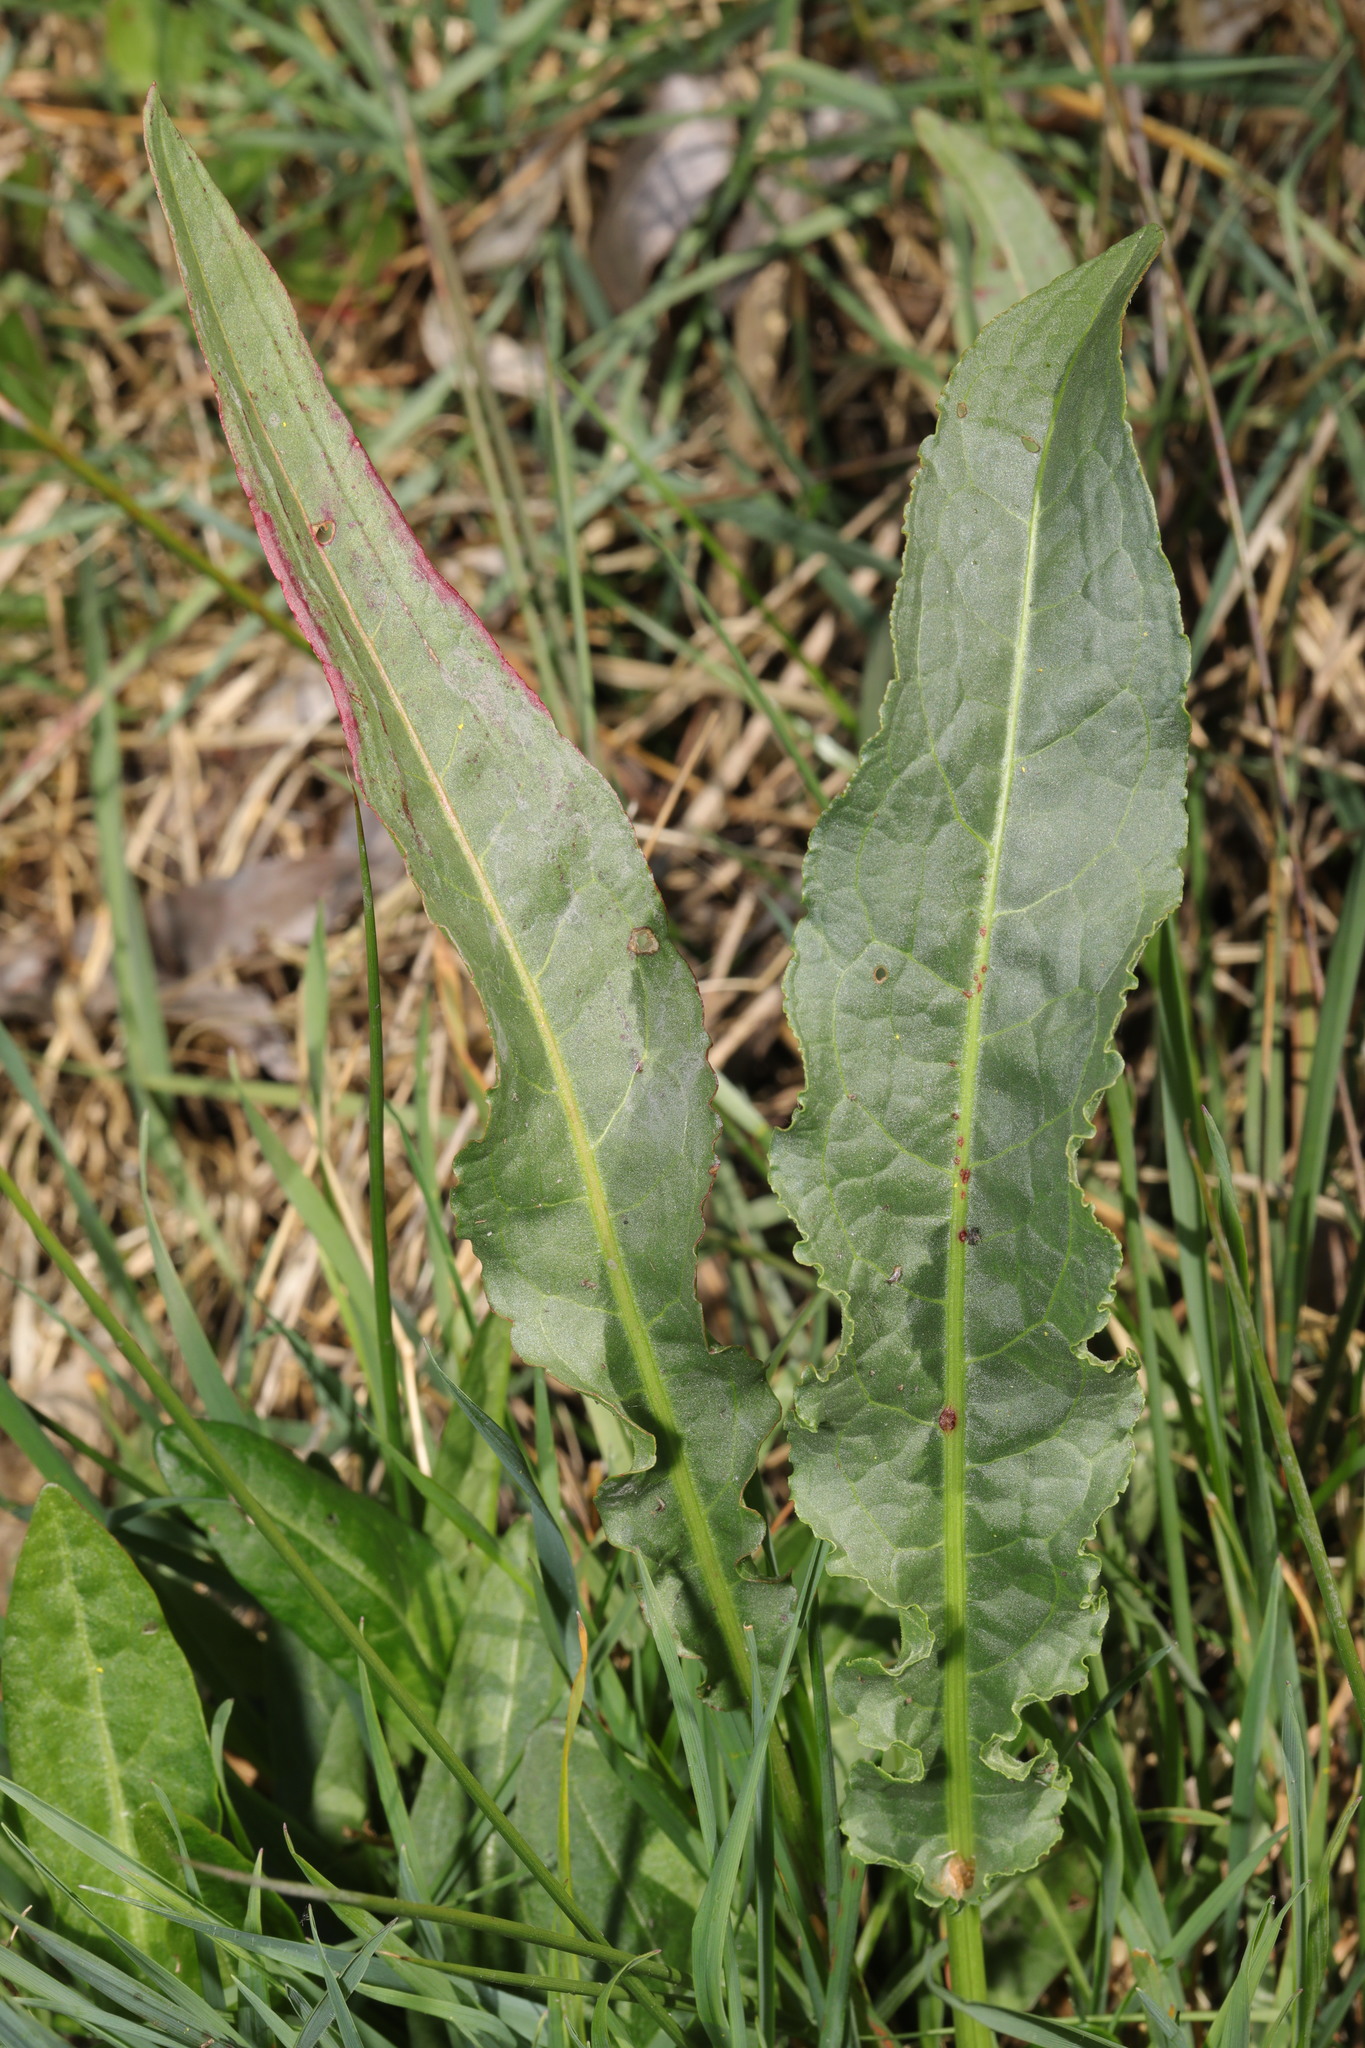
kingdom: Plantae
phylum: Tracheophyta
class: Magnoliopsida
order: Caryophyllales
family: Polygonaceae
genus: Rumex
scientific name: Rumex crispus
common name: Curled dock
